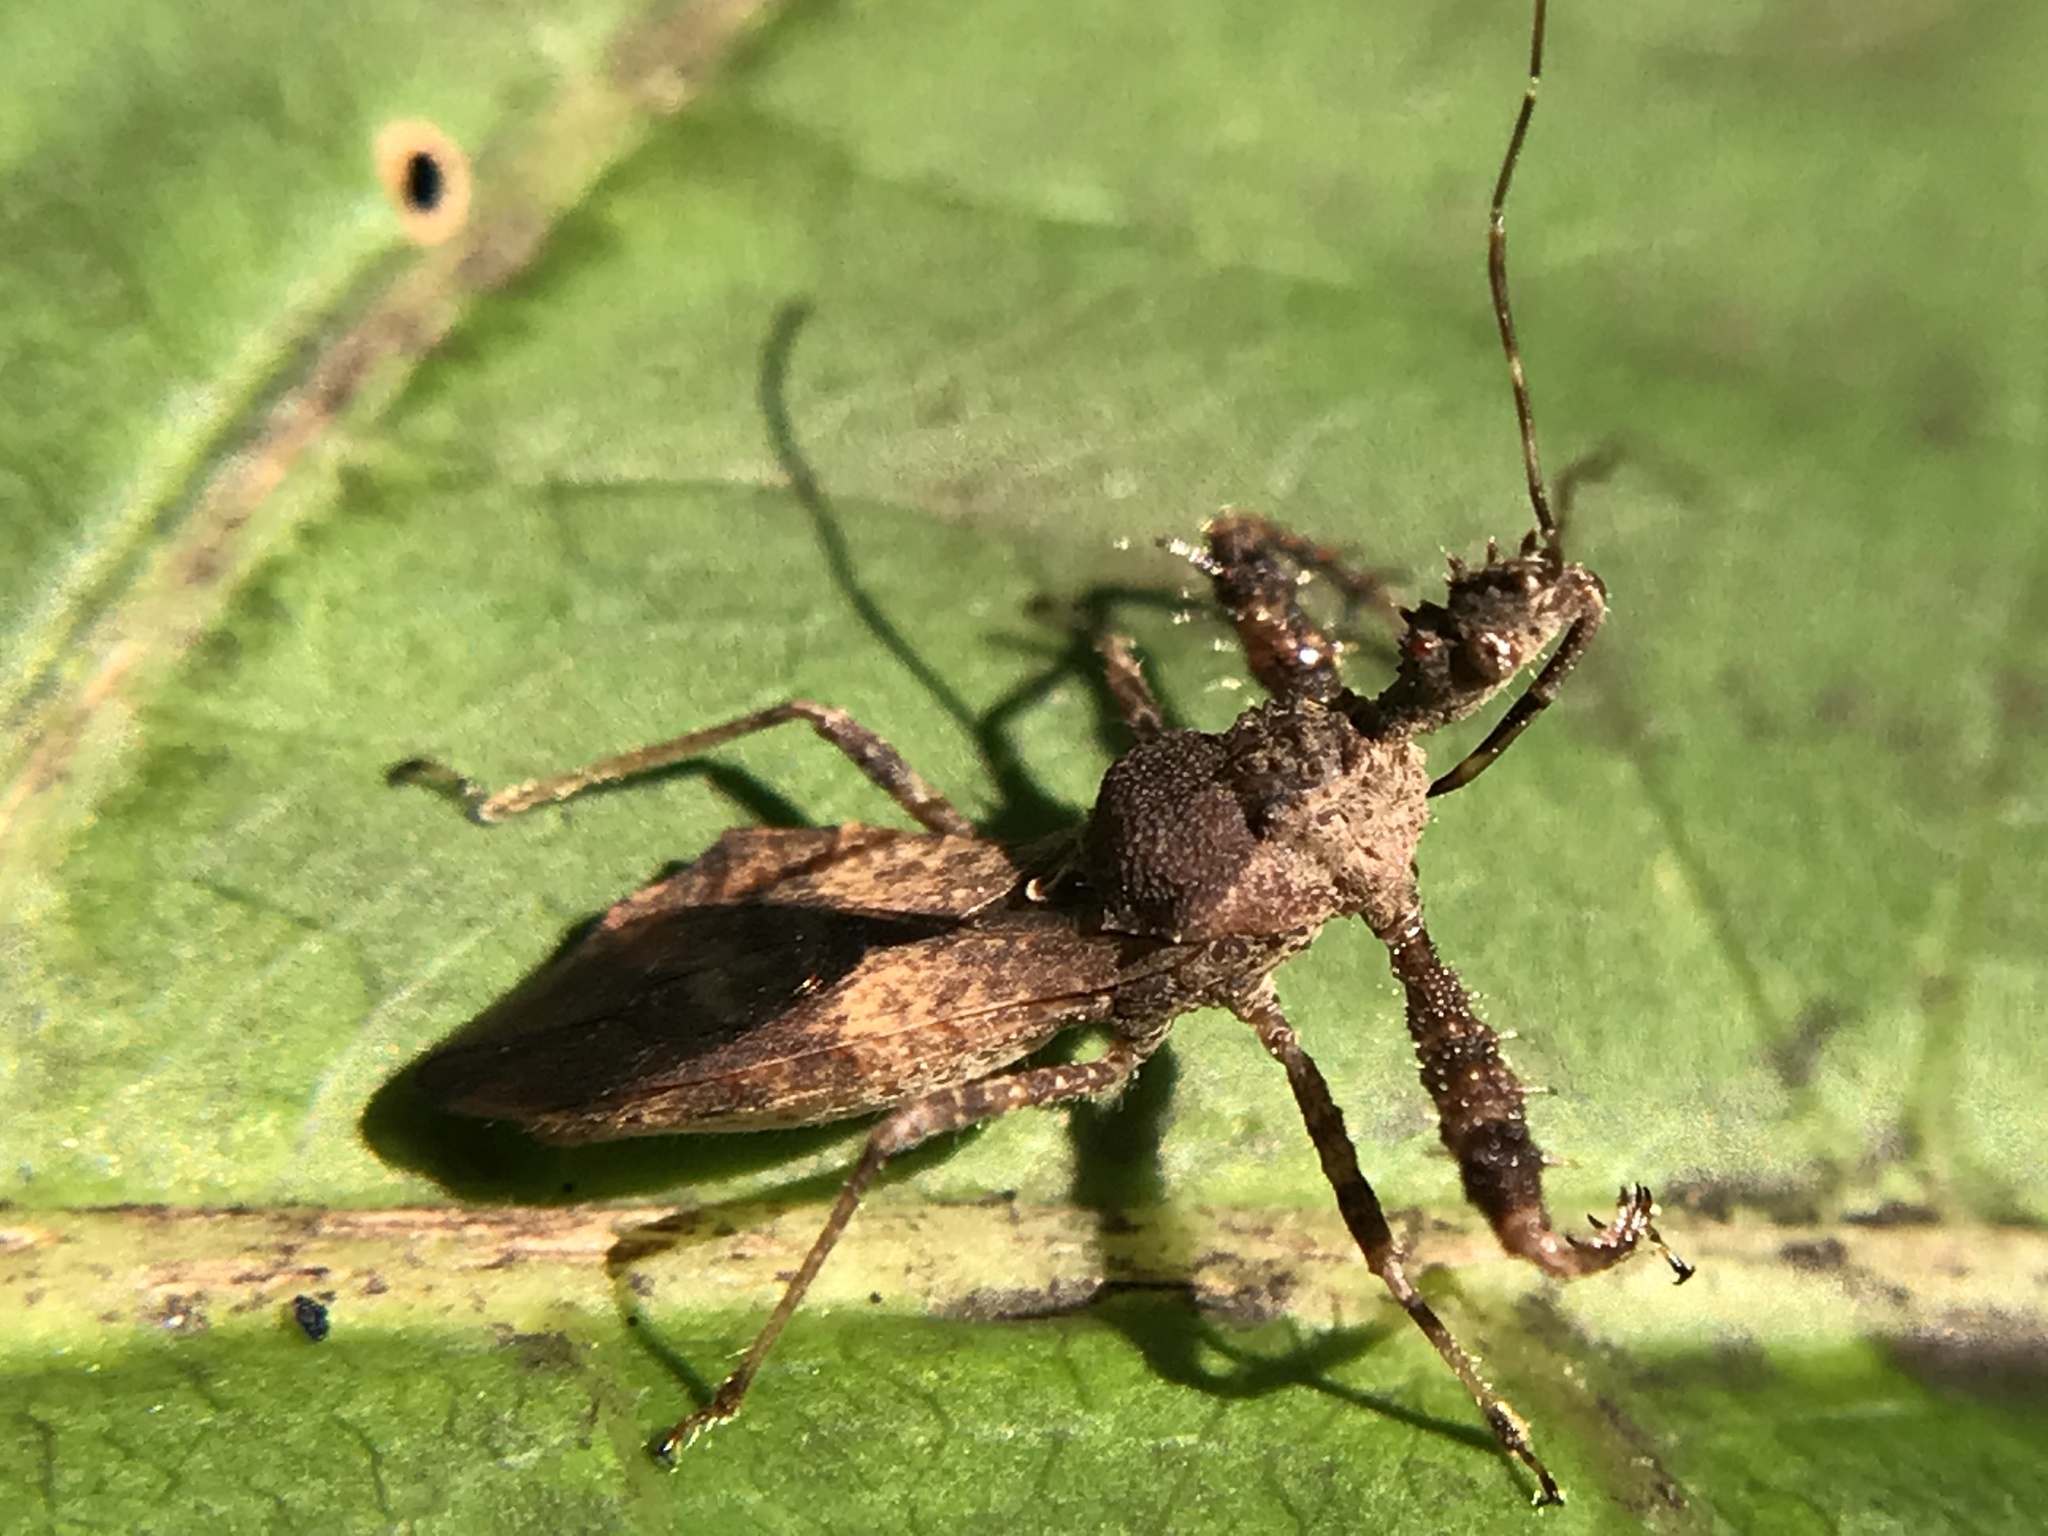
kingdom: Animalia
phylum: Arthropoda
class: Insecta
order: Hemiptera
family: Reduviidae
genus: Sinea
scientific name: Sinea spinipes
